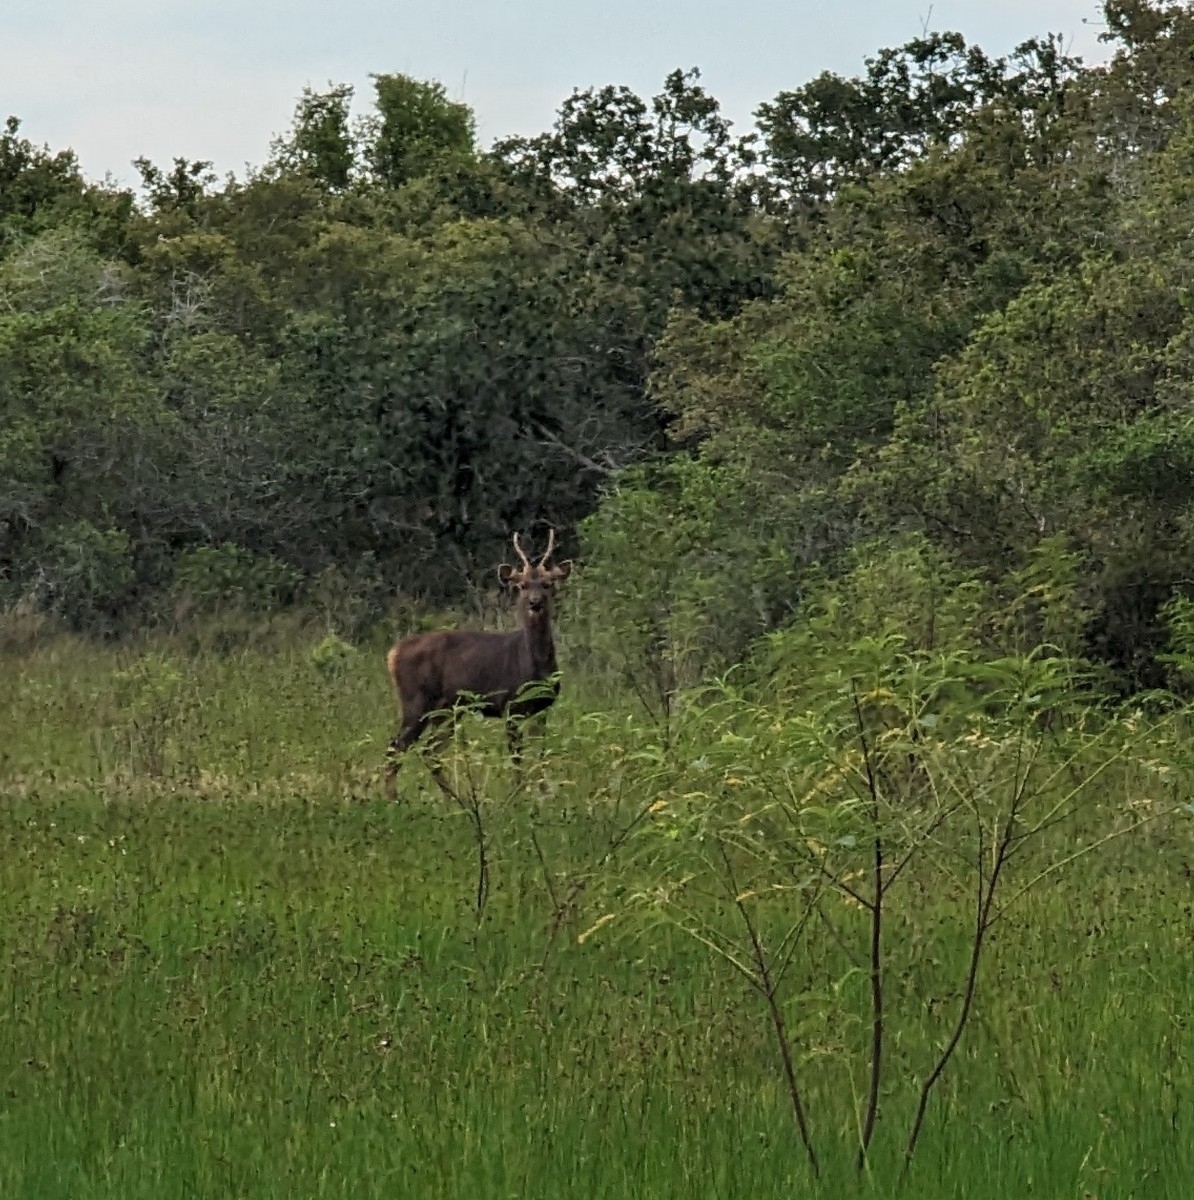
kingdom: Animalia
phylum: Chordata
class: Mammalia
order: Artiodactyla
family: Cervidae
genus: Rusa
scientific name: Rusa unicolor
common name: Sambar
